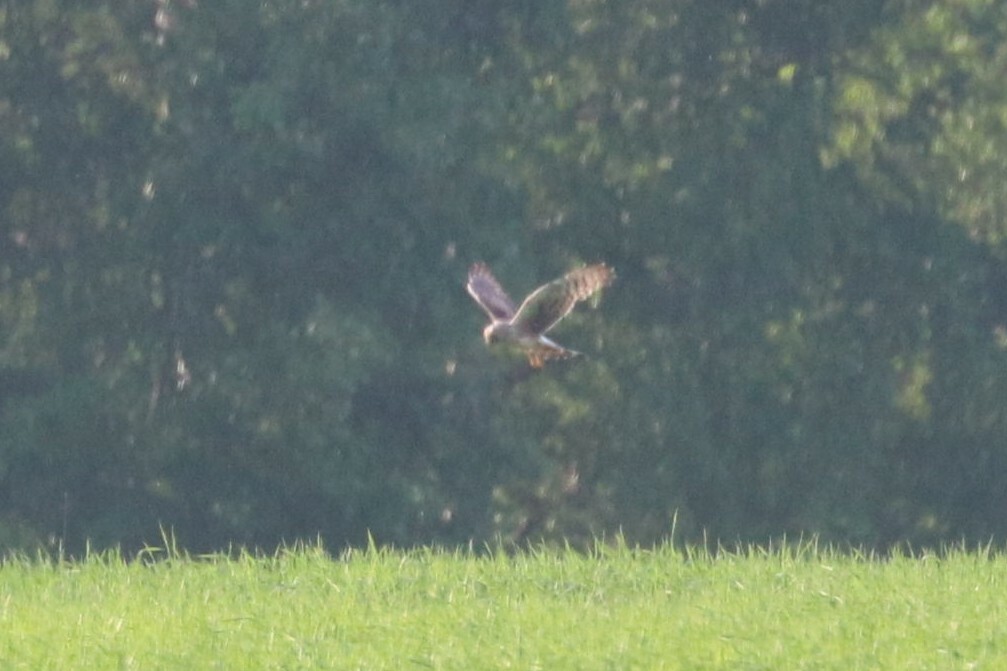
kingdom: Animalia
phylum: Chordata
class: Aves
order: Accipitriformes
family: Accipitridae
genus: Circus
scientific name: Circus cyaneus
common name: Hen harrier
